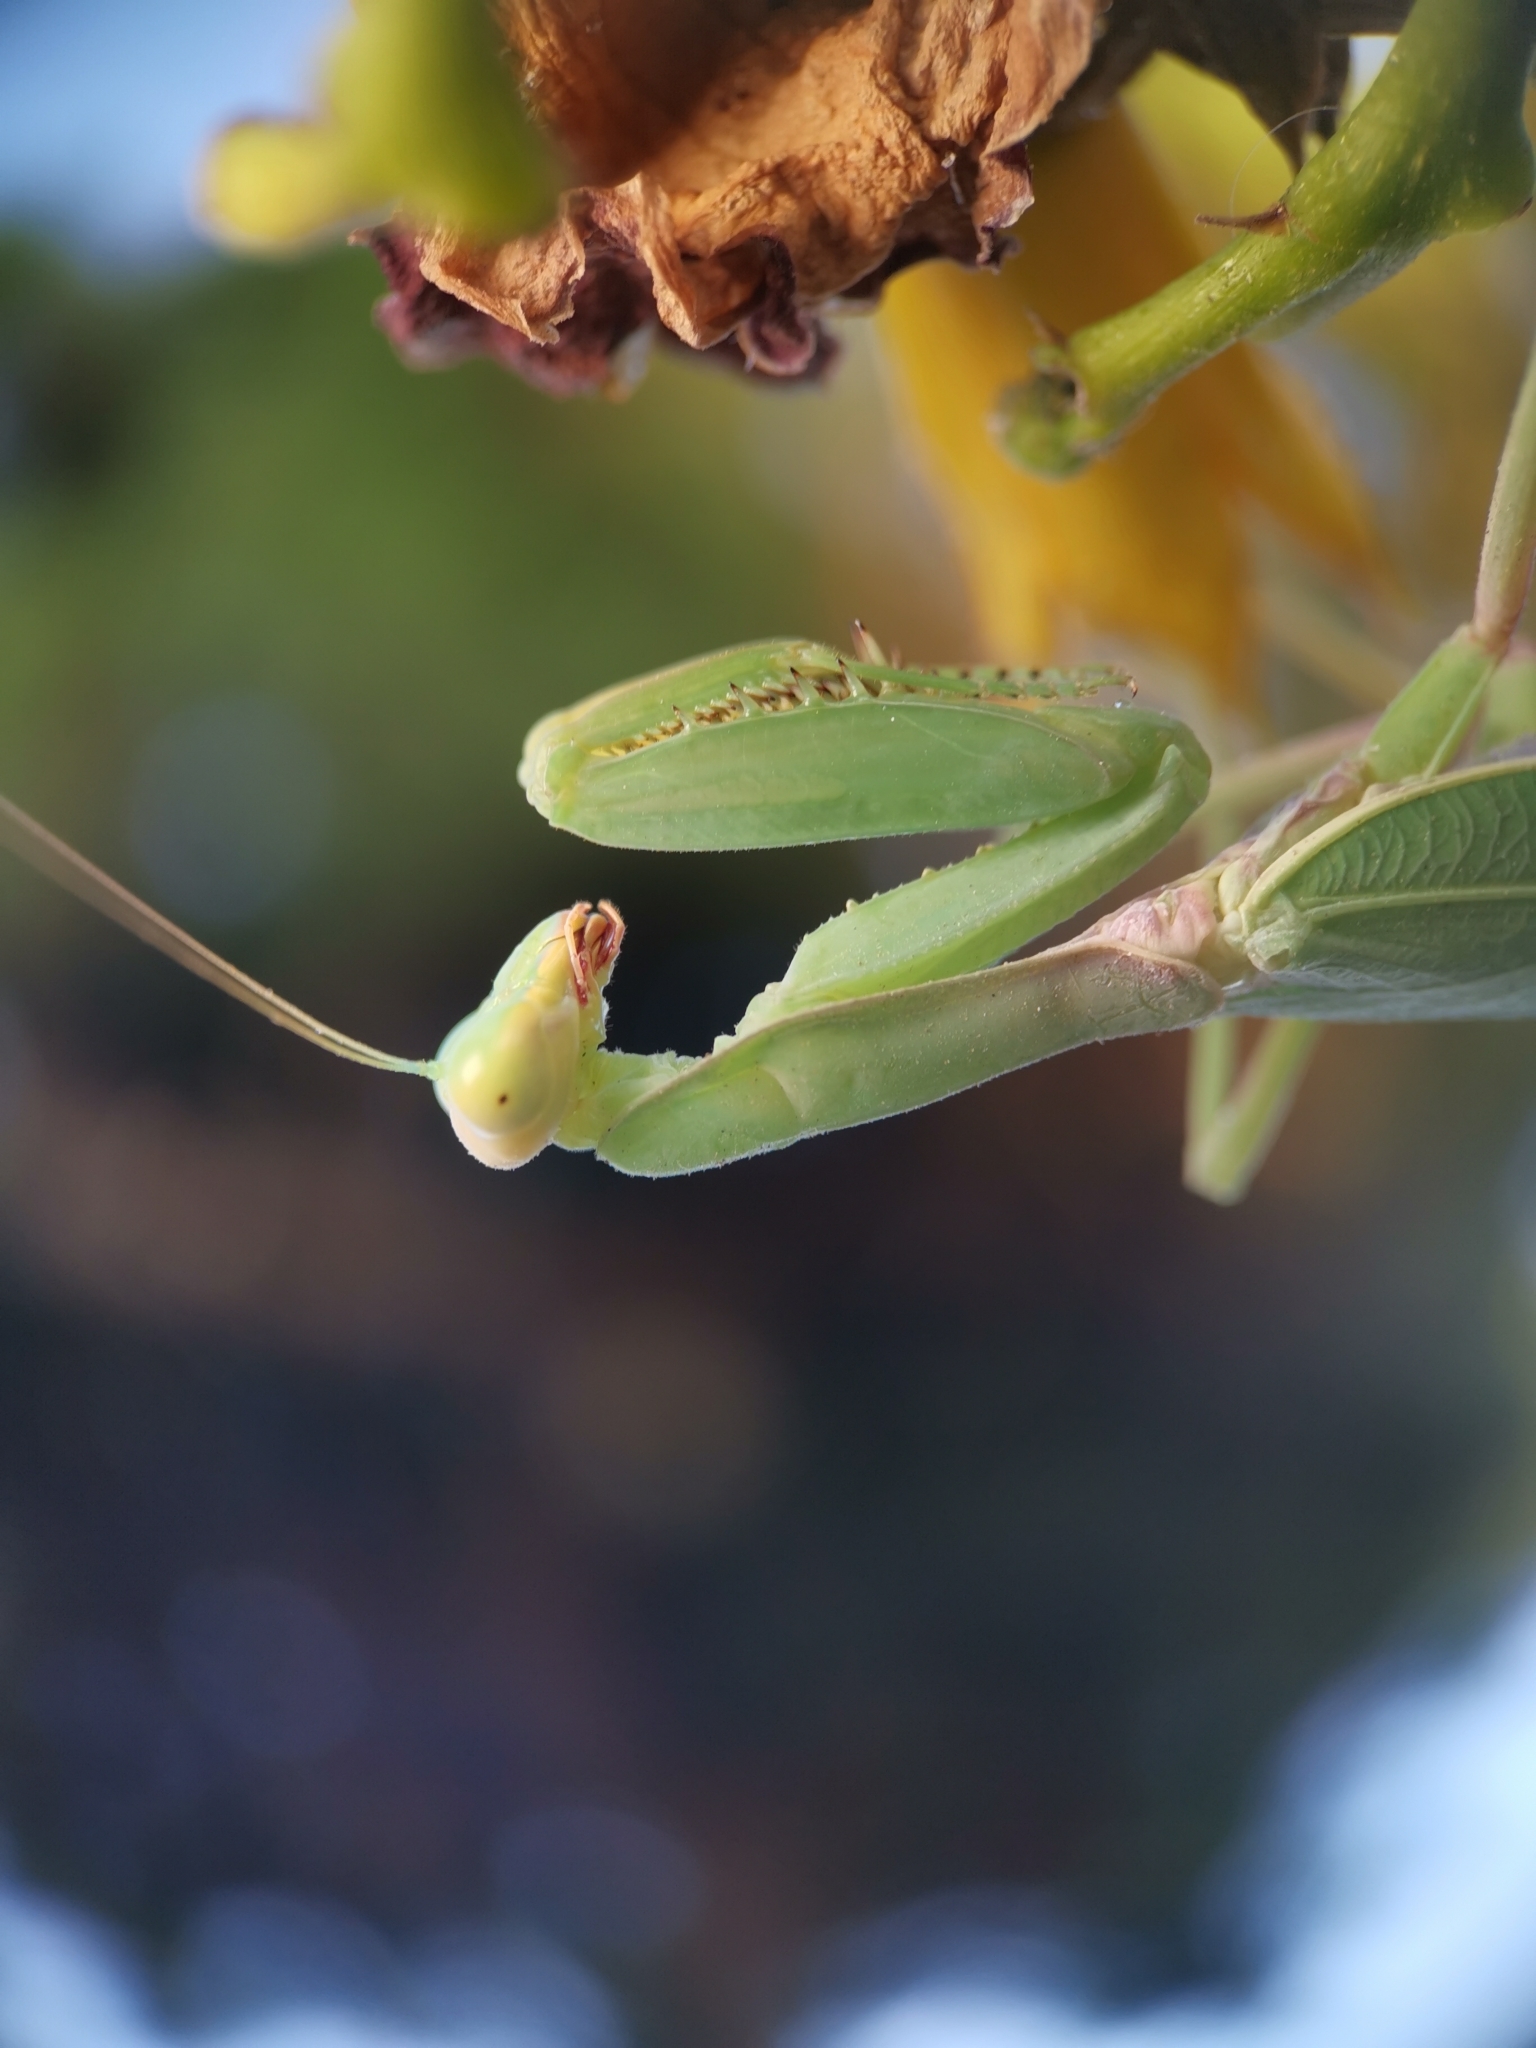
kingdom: Animalia
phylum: Arthropoda
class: Insecta
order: Mantodea
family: Mantidae
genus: Hierodula
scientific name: Hierodula transcaucasica
